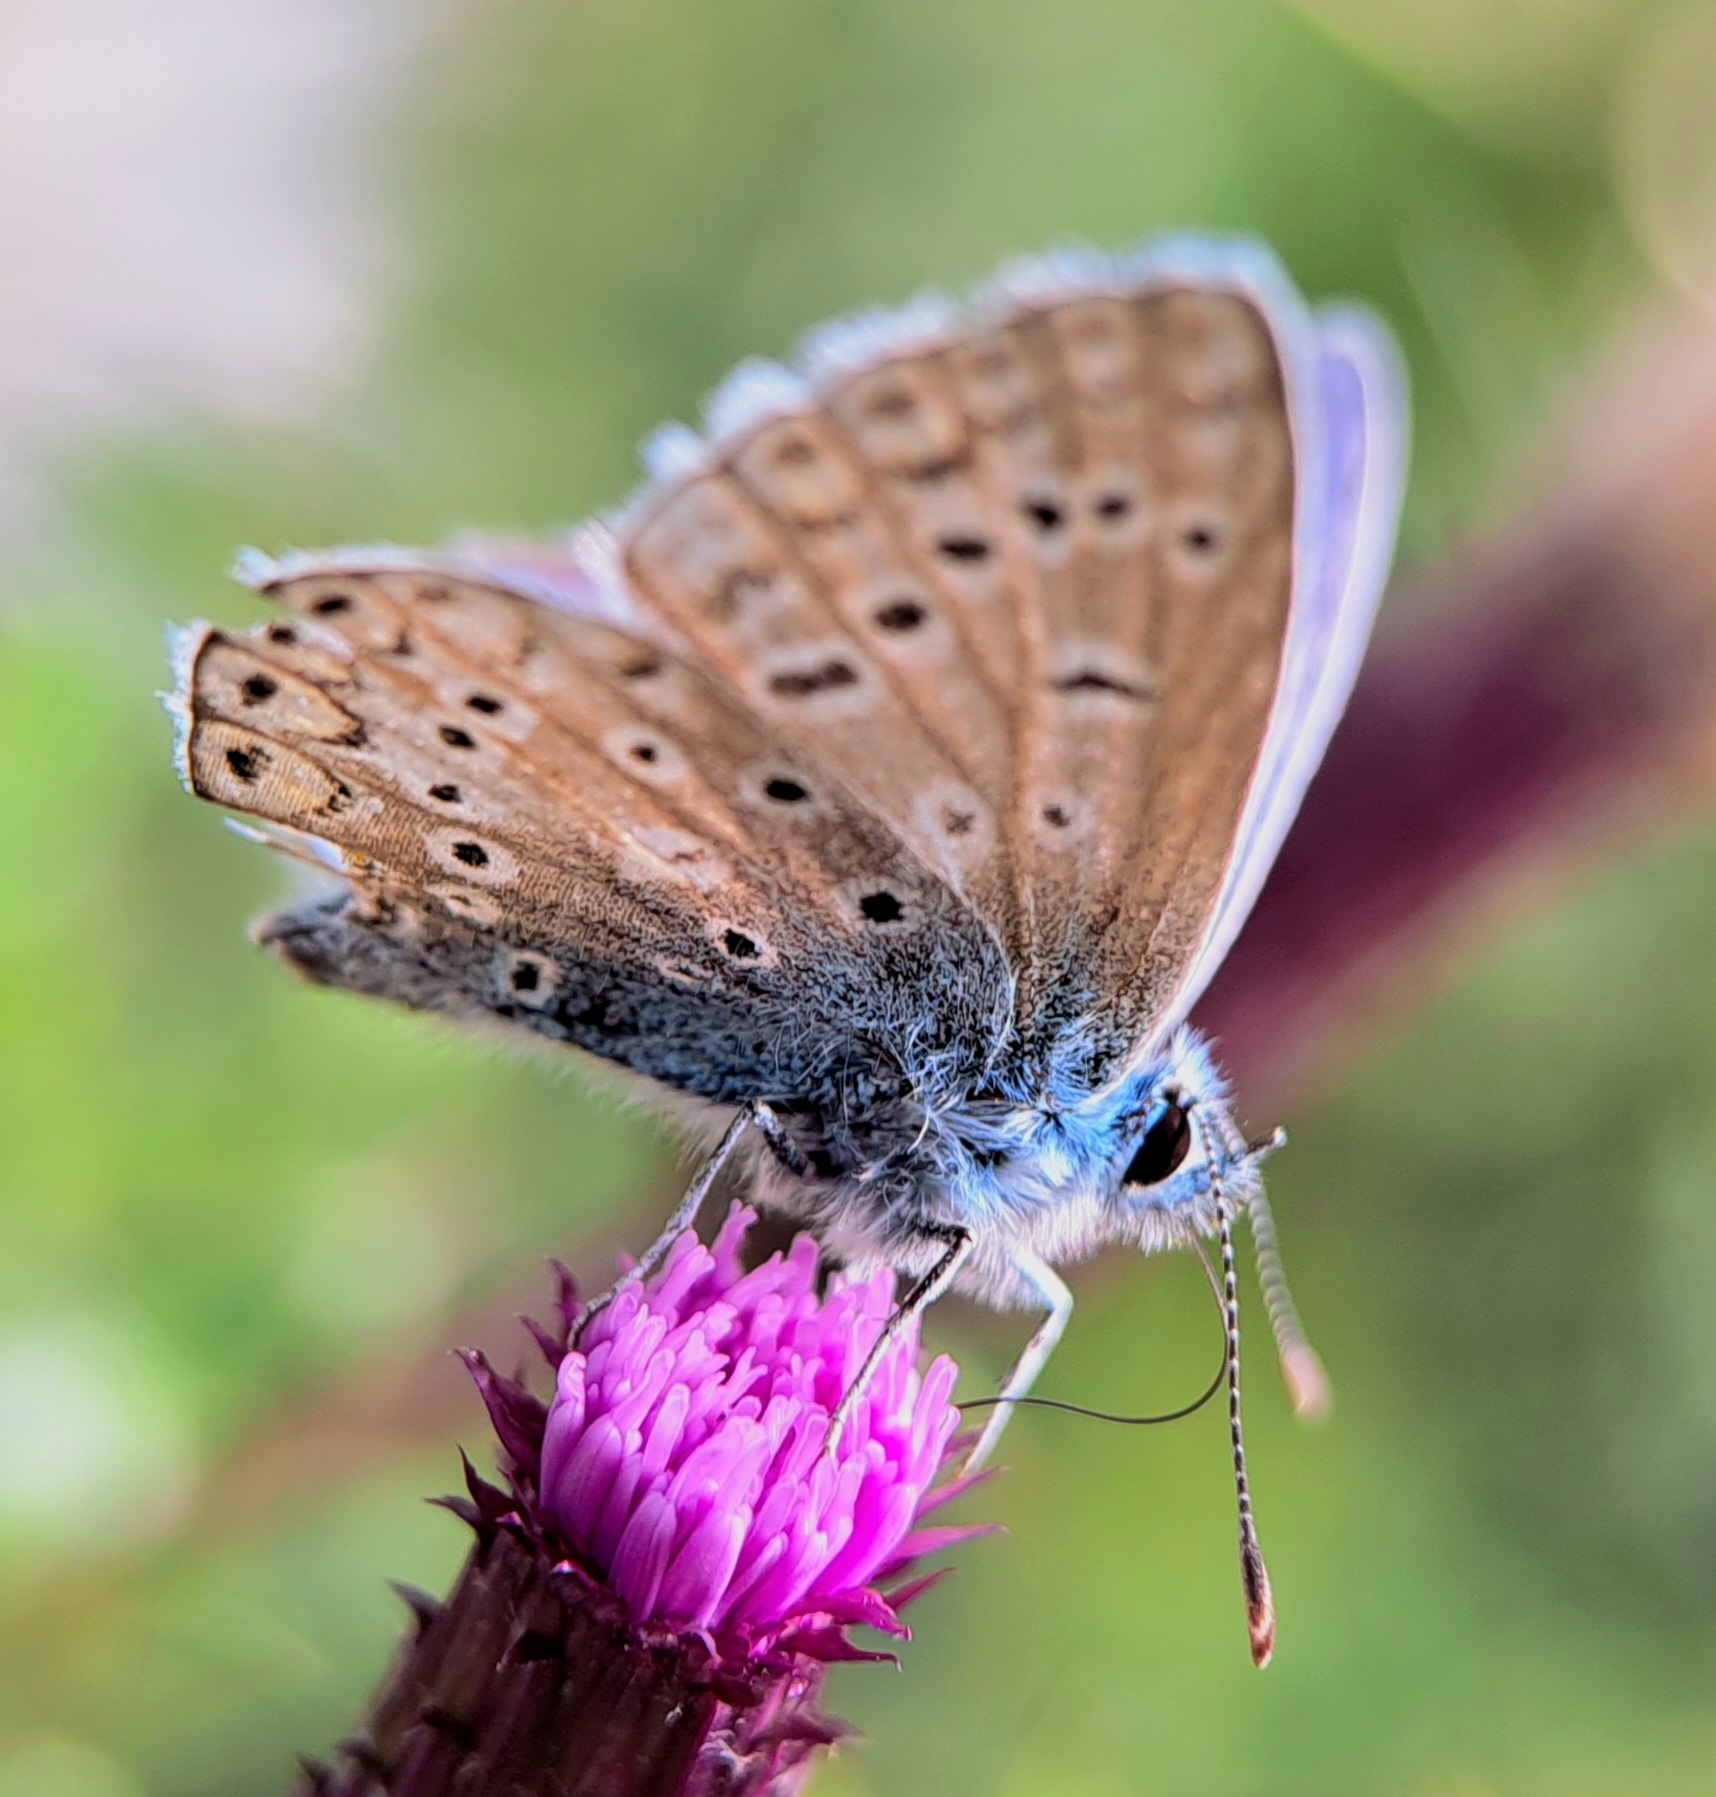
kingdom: Animalia
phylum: Arthropoda
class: Insecta
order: Lepidoptera
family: Lycaenidae
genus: Polyommatus
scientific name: Polyommatus icarus
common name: Common blue
